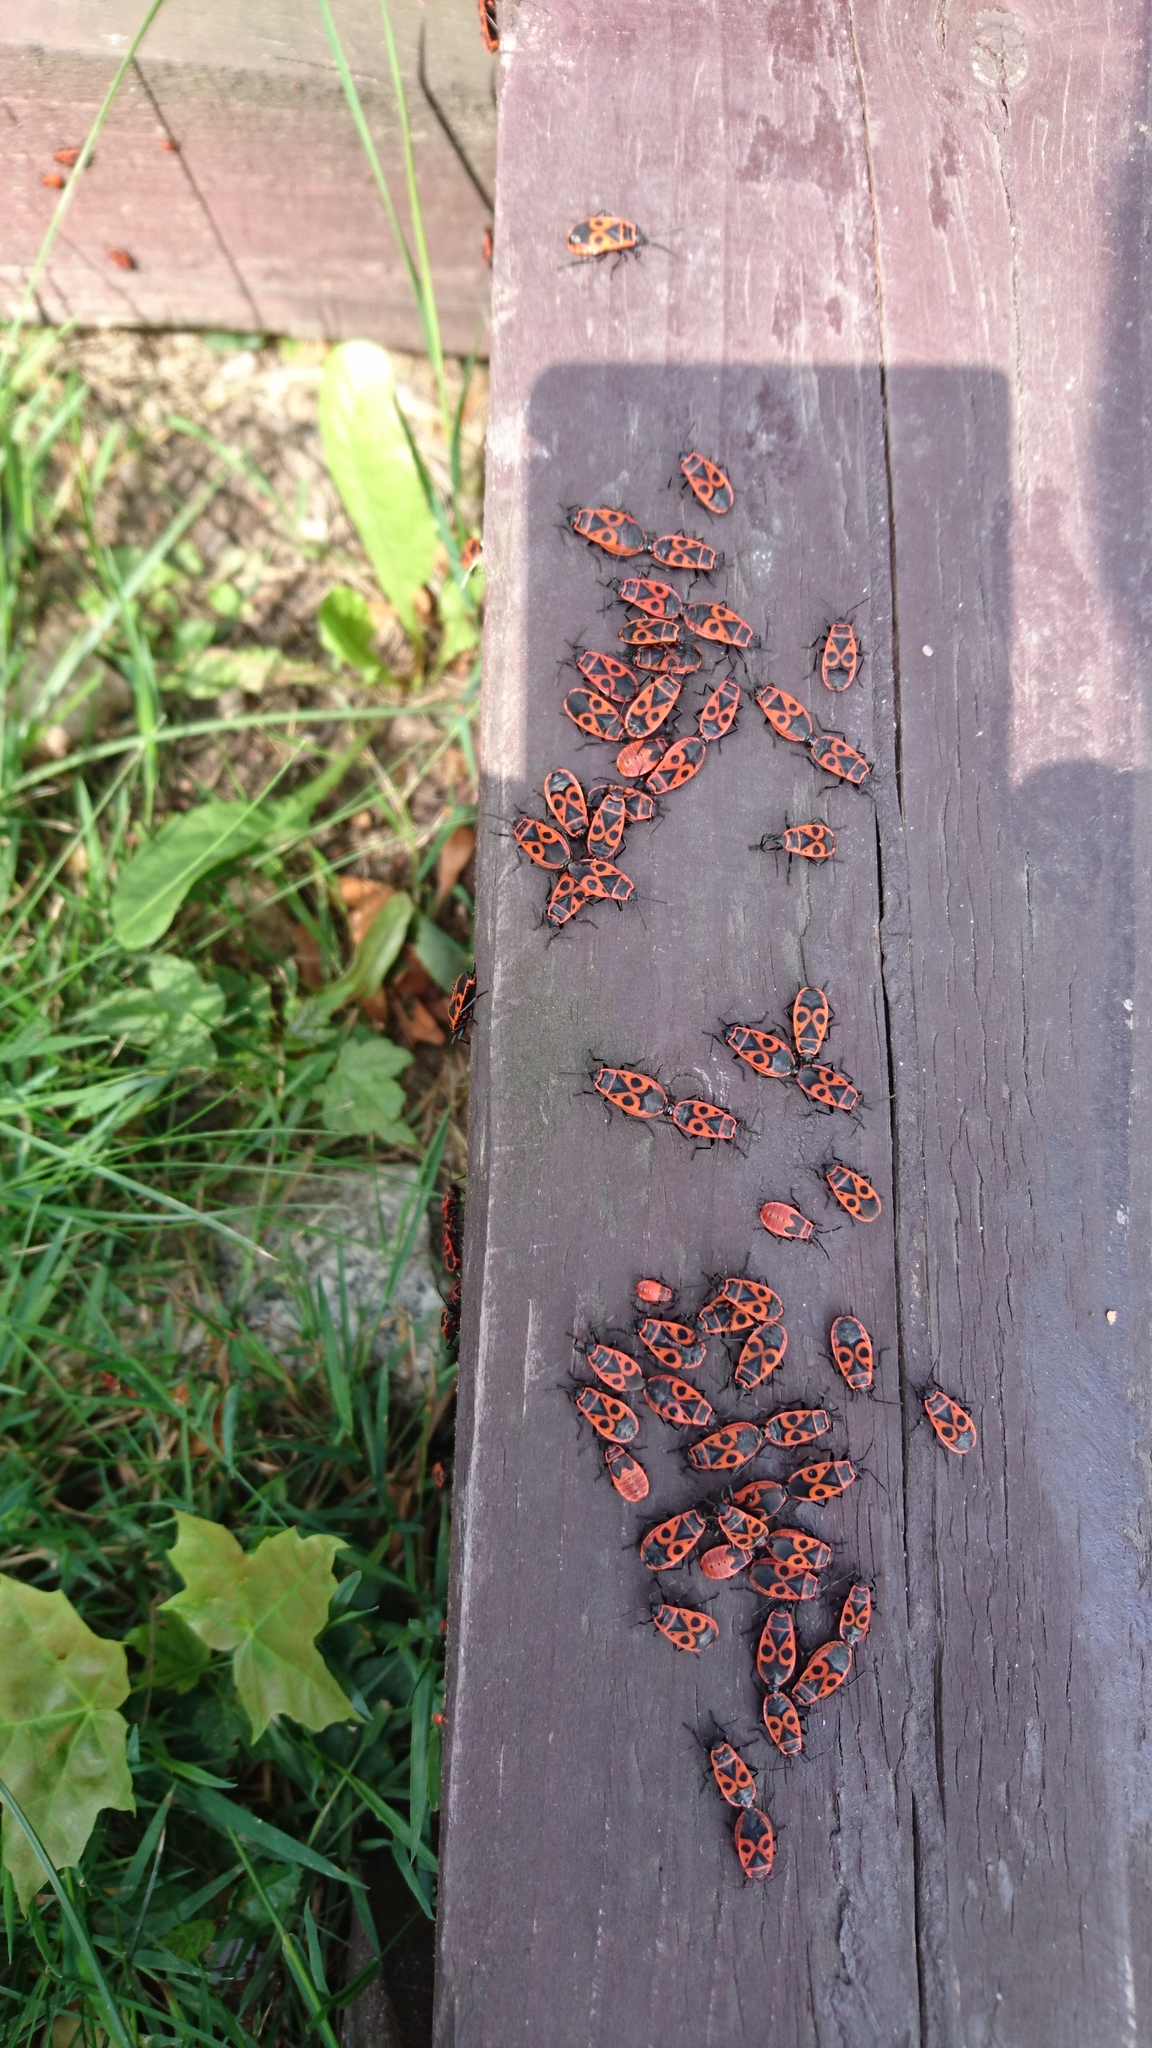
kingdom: Animalia
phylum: Arthropoda
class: Insecta
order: Hemiptera
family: Pyrrhocoridae
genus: Pyrrhocoris
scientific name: Pyrrhocoris apterus
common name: Firebug
